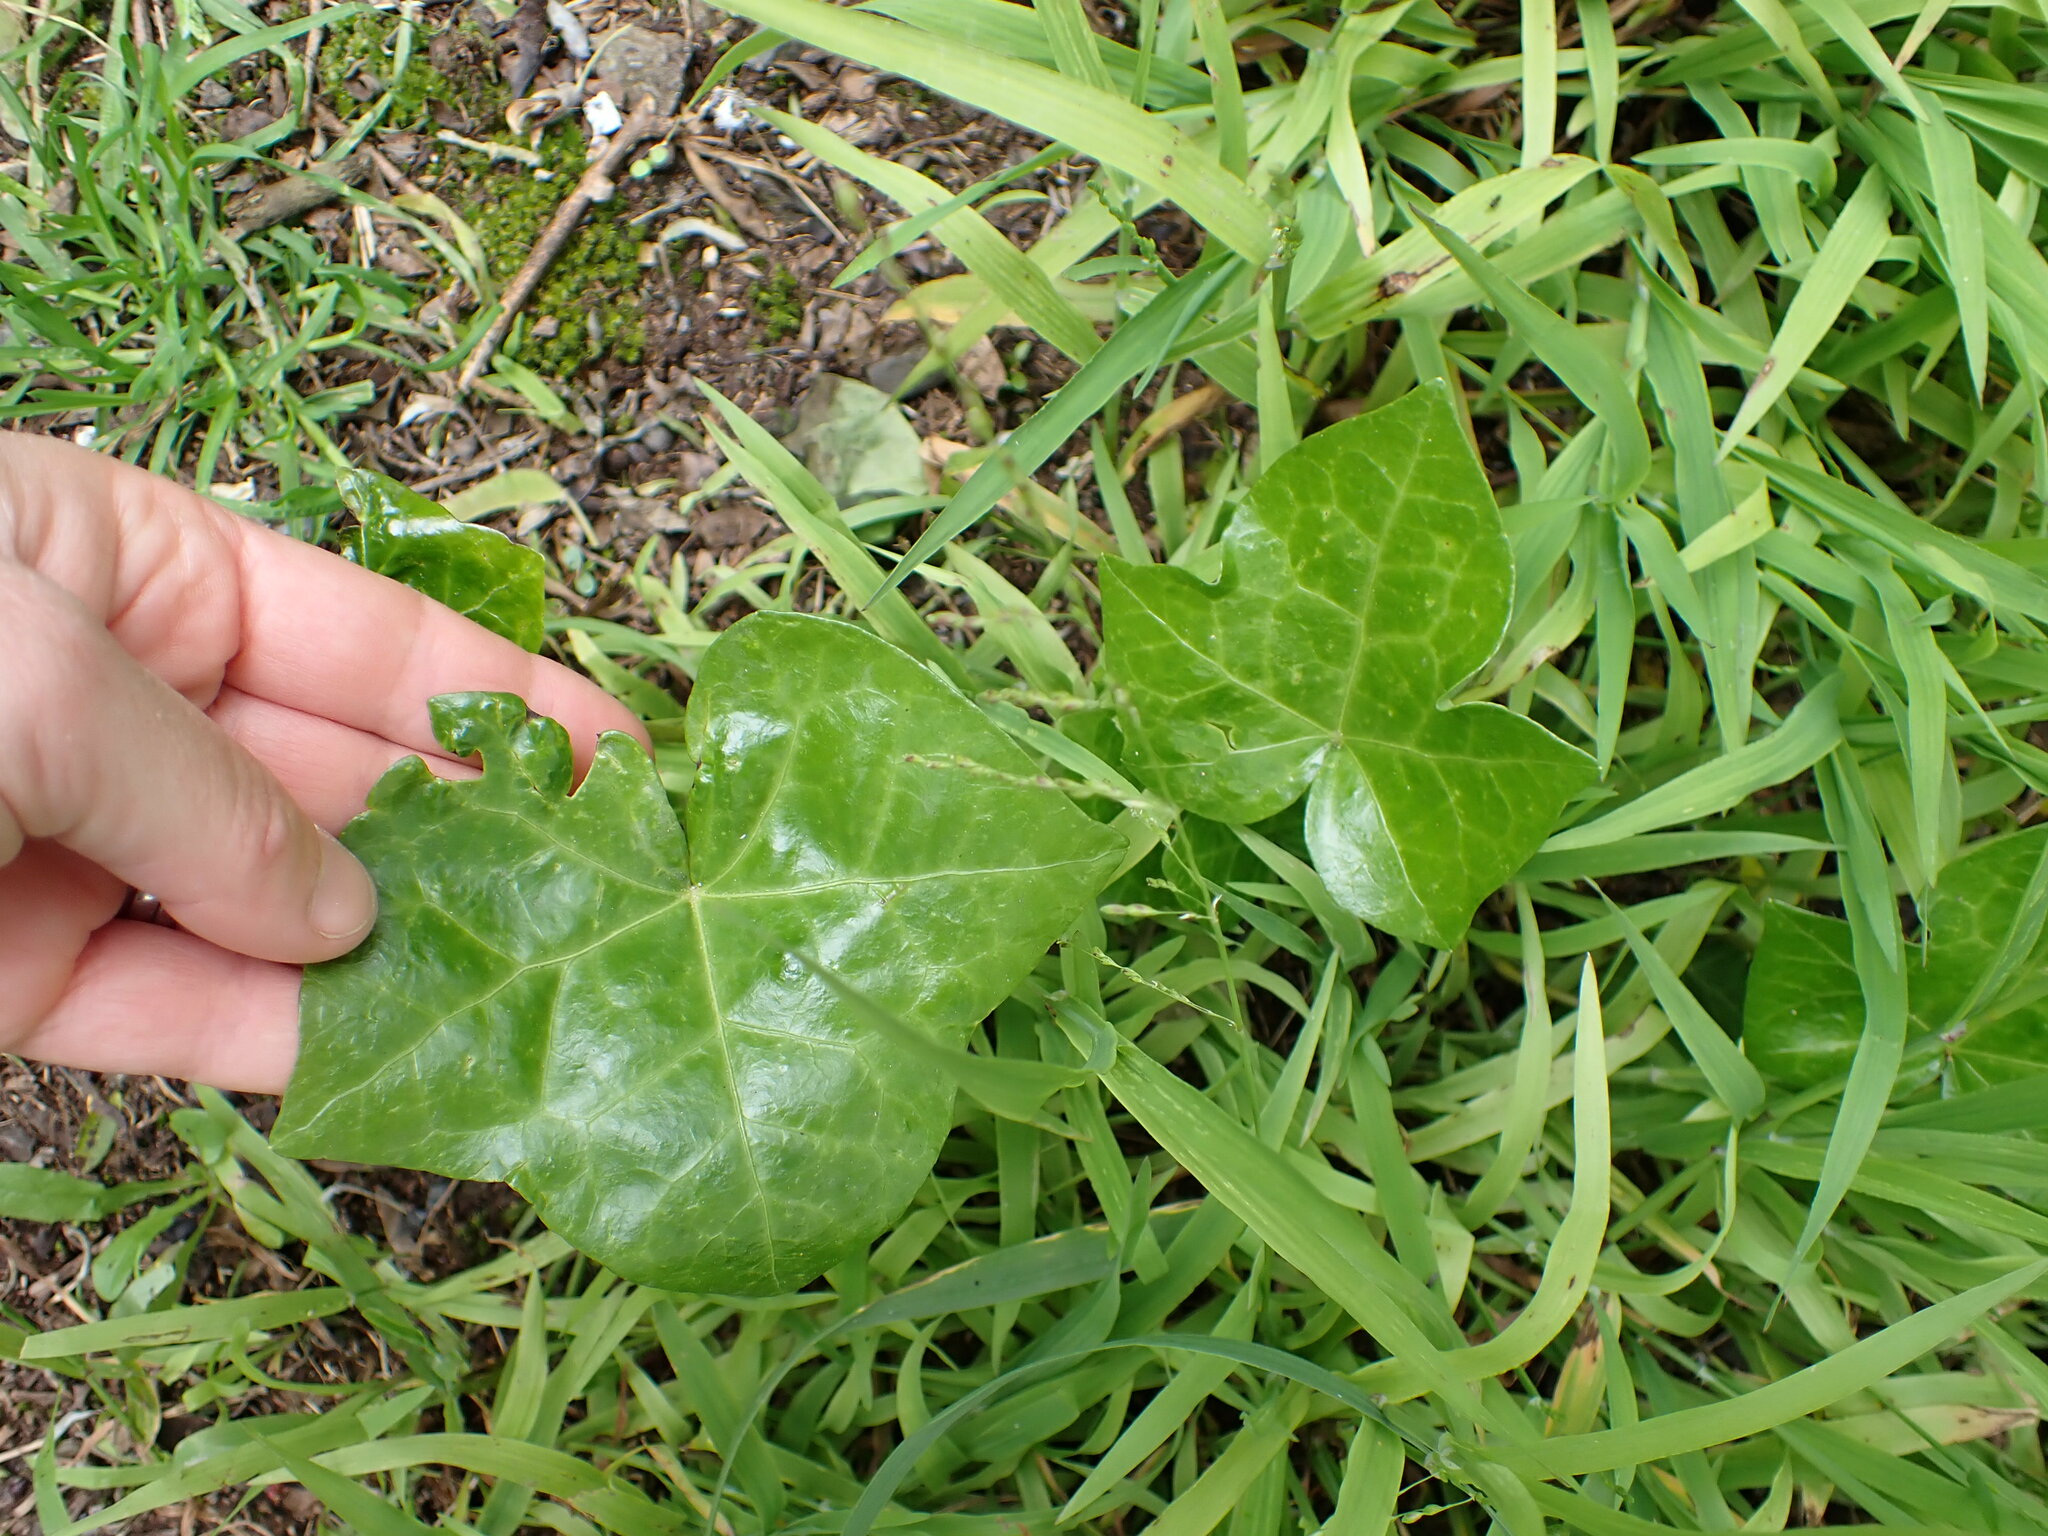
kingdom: Plantae
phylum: Tracheophyta
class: Magnoliopsida
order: Apiales
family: Araliaceae
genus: Hedera
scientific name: Hedera helix
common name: Ivy
